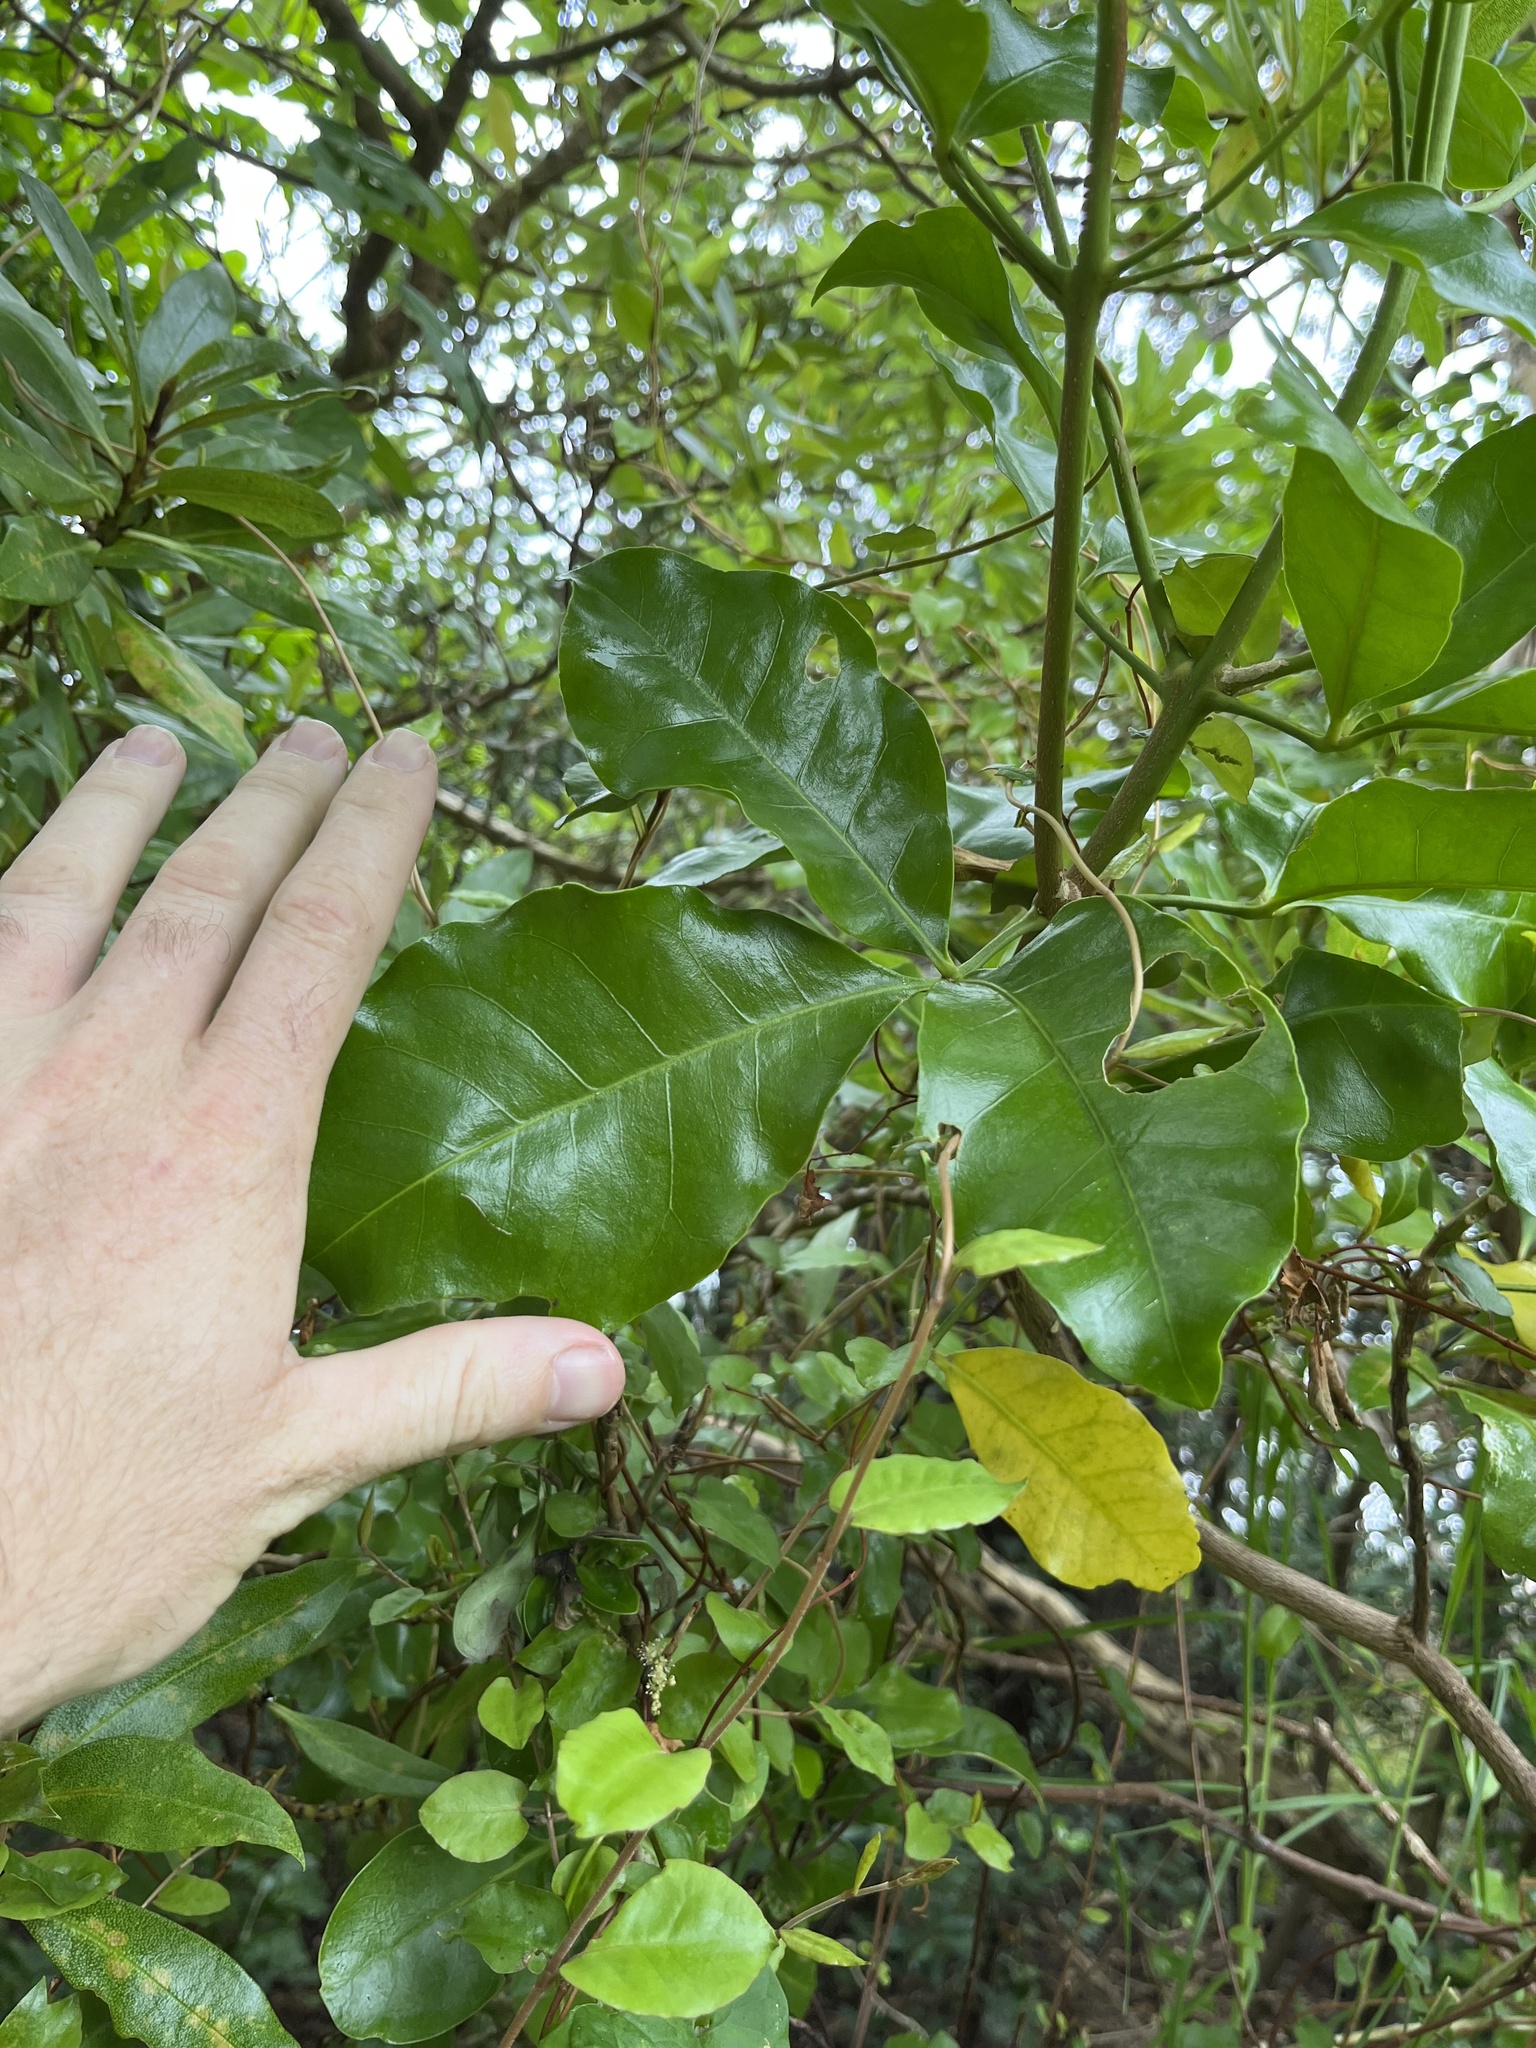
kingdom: Plantae
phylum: Tracheophyta
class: Magnoliopsida
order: Sapindales
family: Rutaceae
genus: Melicope
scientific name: Melicope ternata
